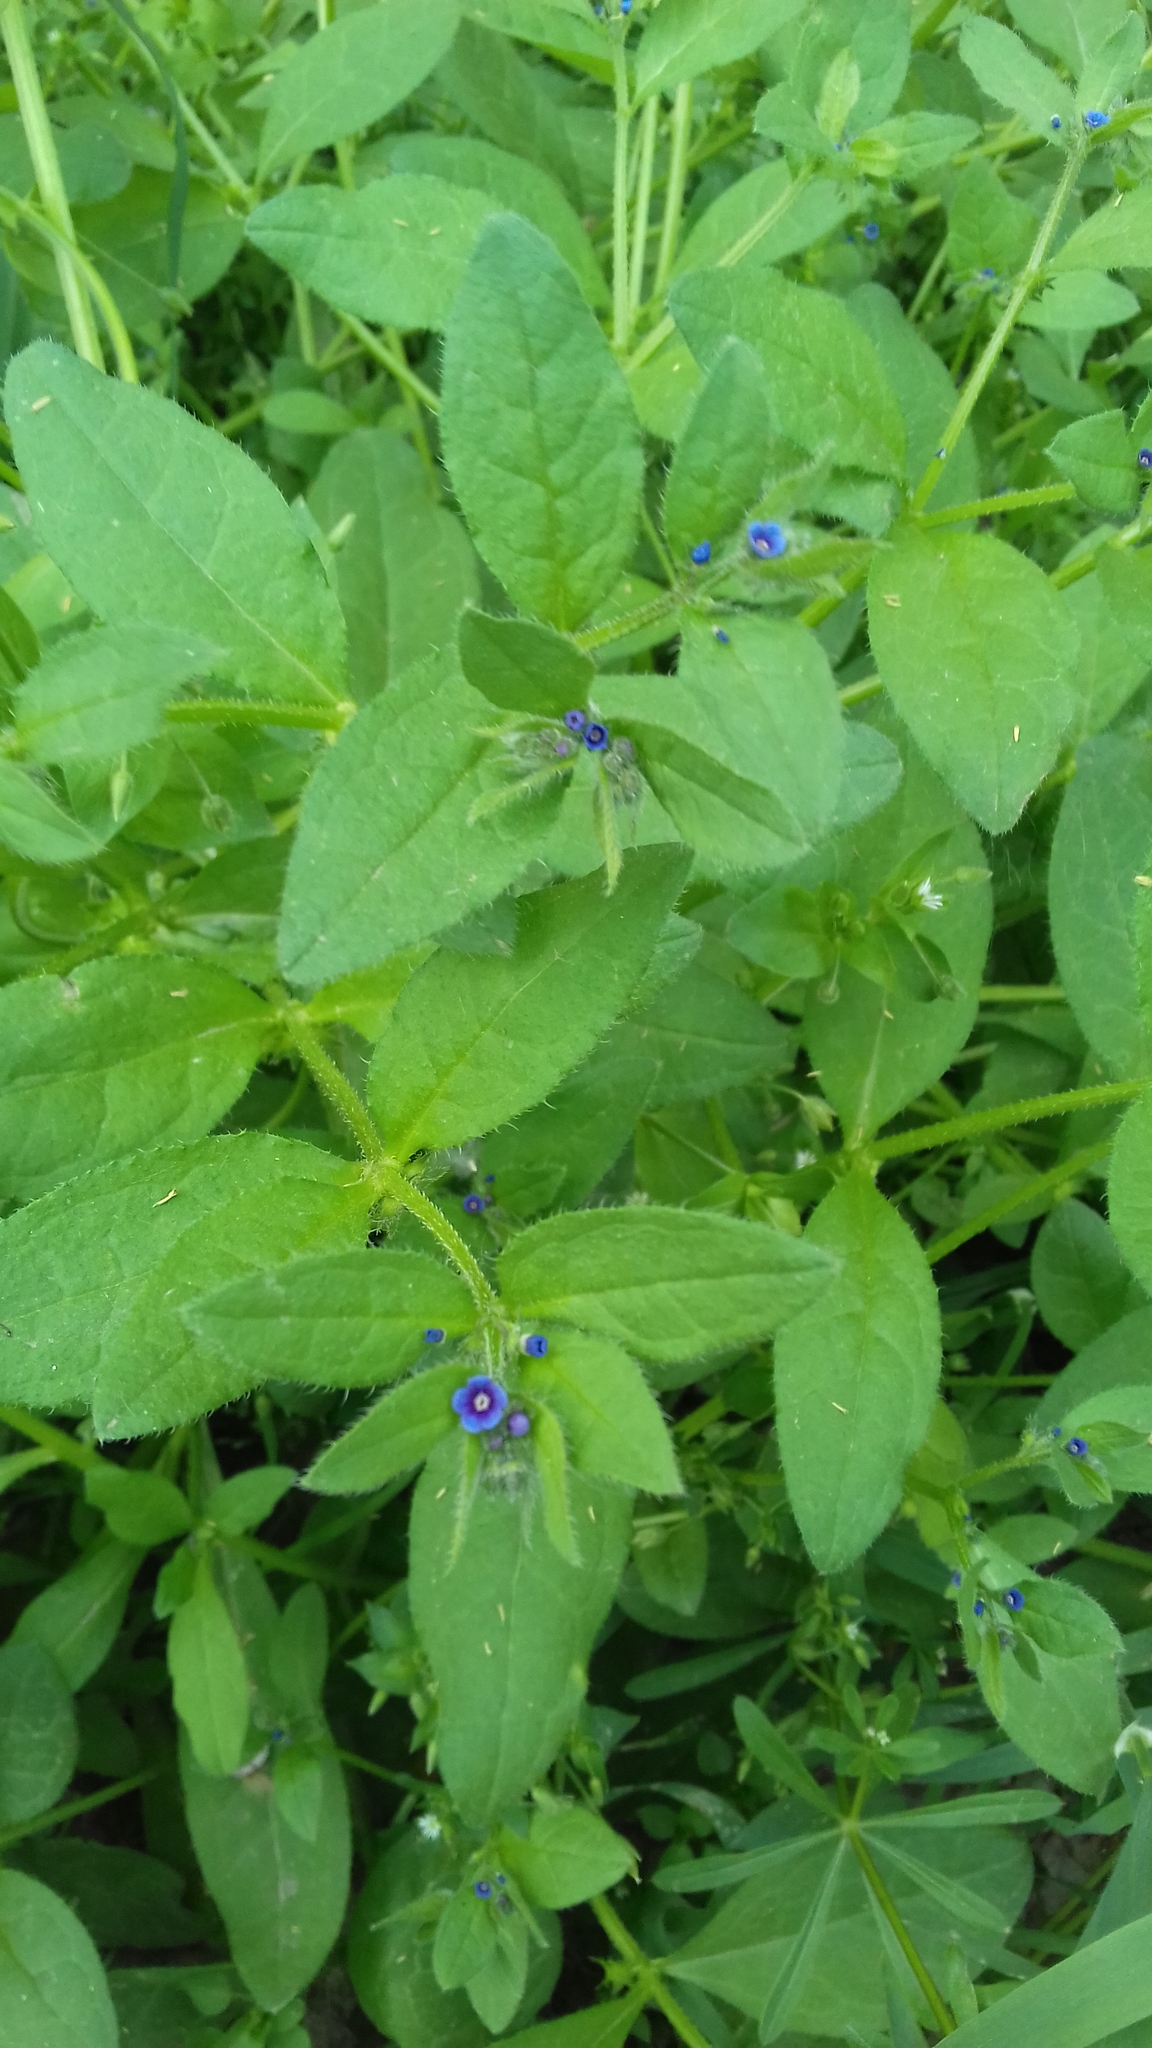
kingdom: Plantae
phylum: Tracheophyta
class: Magnoliopsida
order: Boraginales
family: Boraginaceae
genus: Asperugo
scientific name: Asperugo procumbens
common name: Madwort
